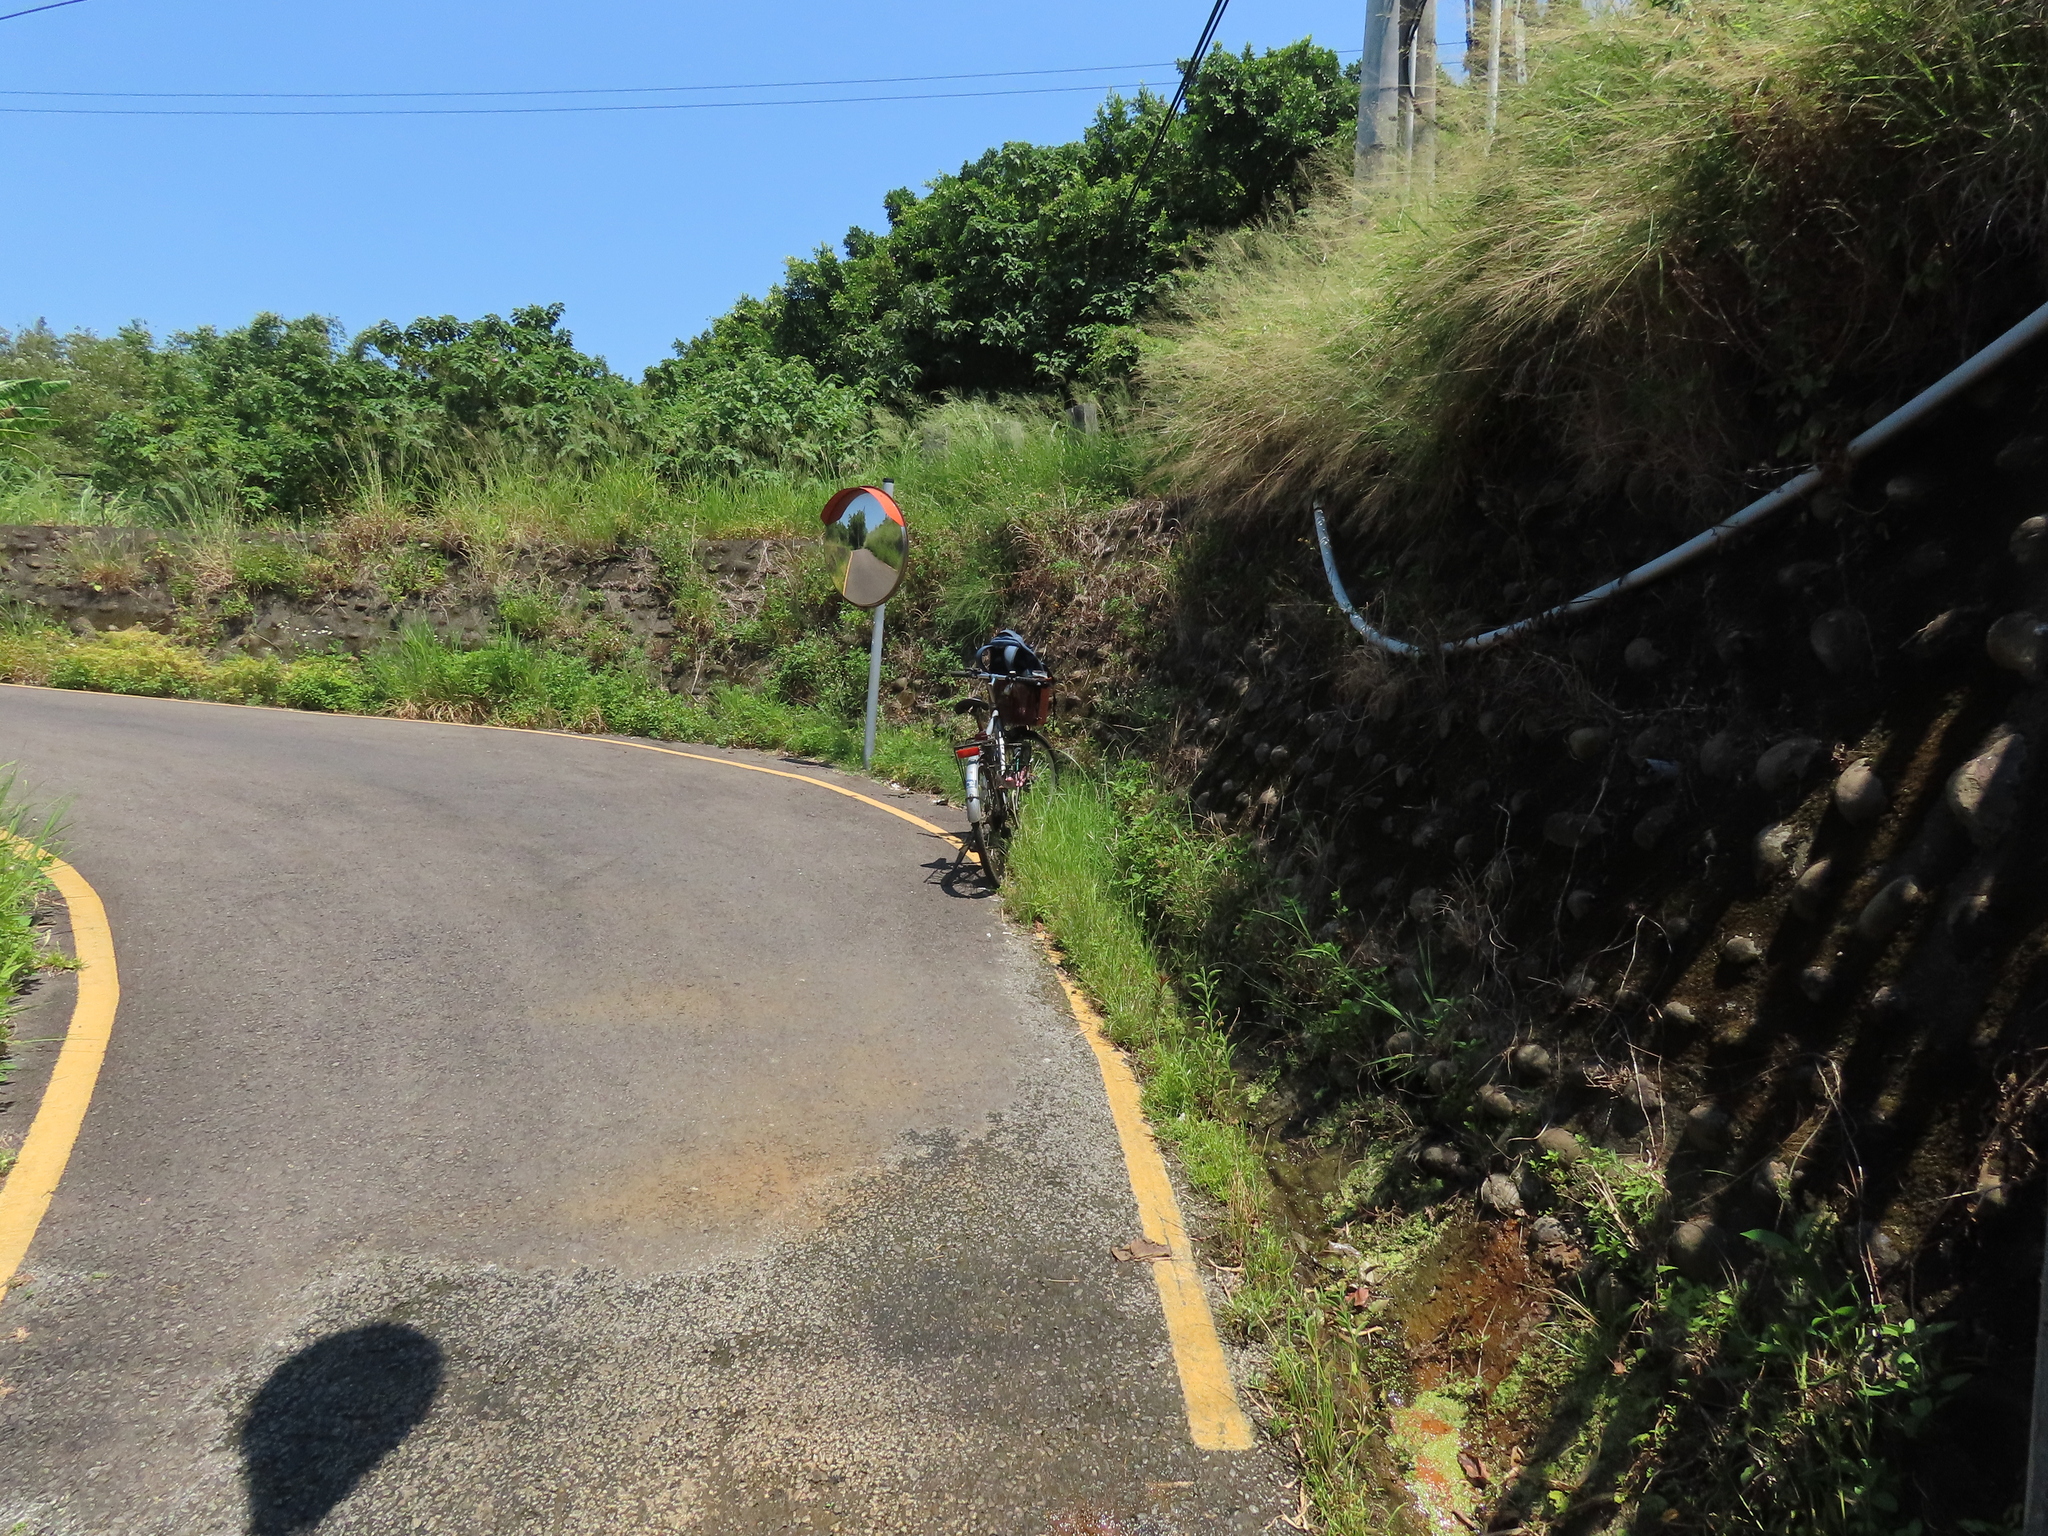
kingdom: Plantae
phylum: Tracheophyta
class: Liliopsida
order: Alismatales
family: Araceae
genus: Lemna
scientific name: Lemna aequinoctialis
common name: Duckweed
